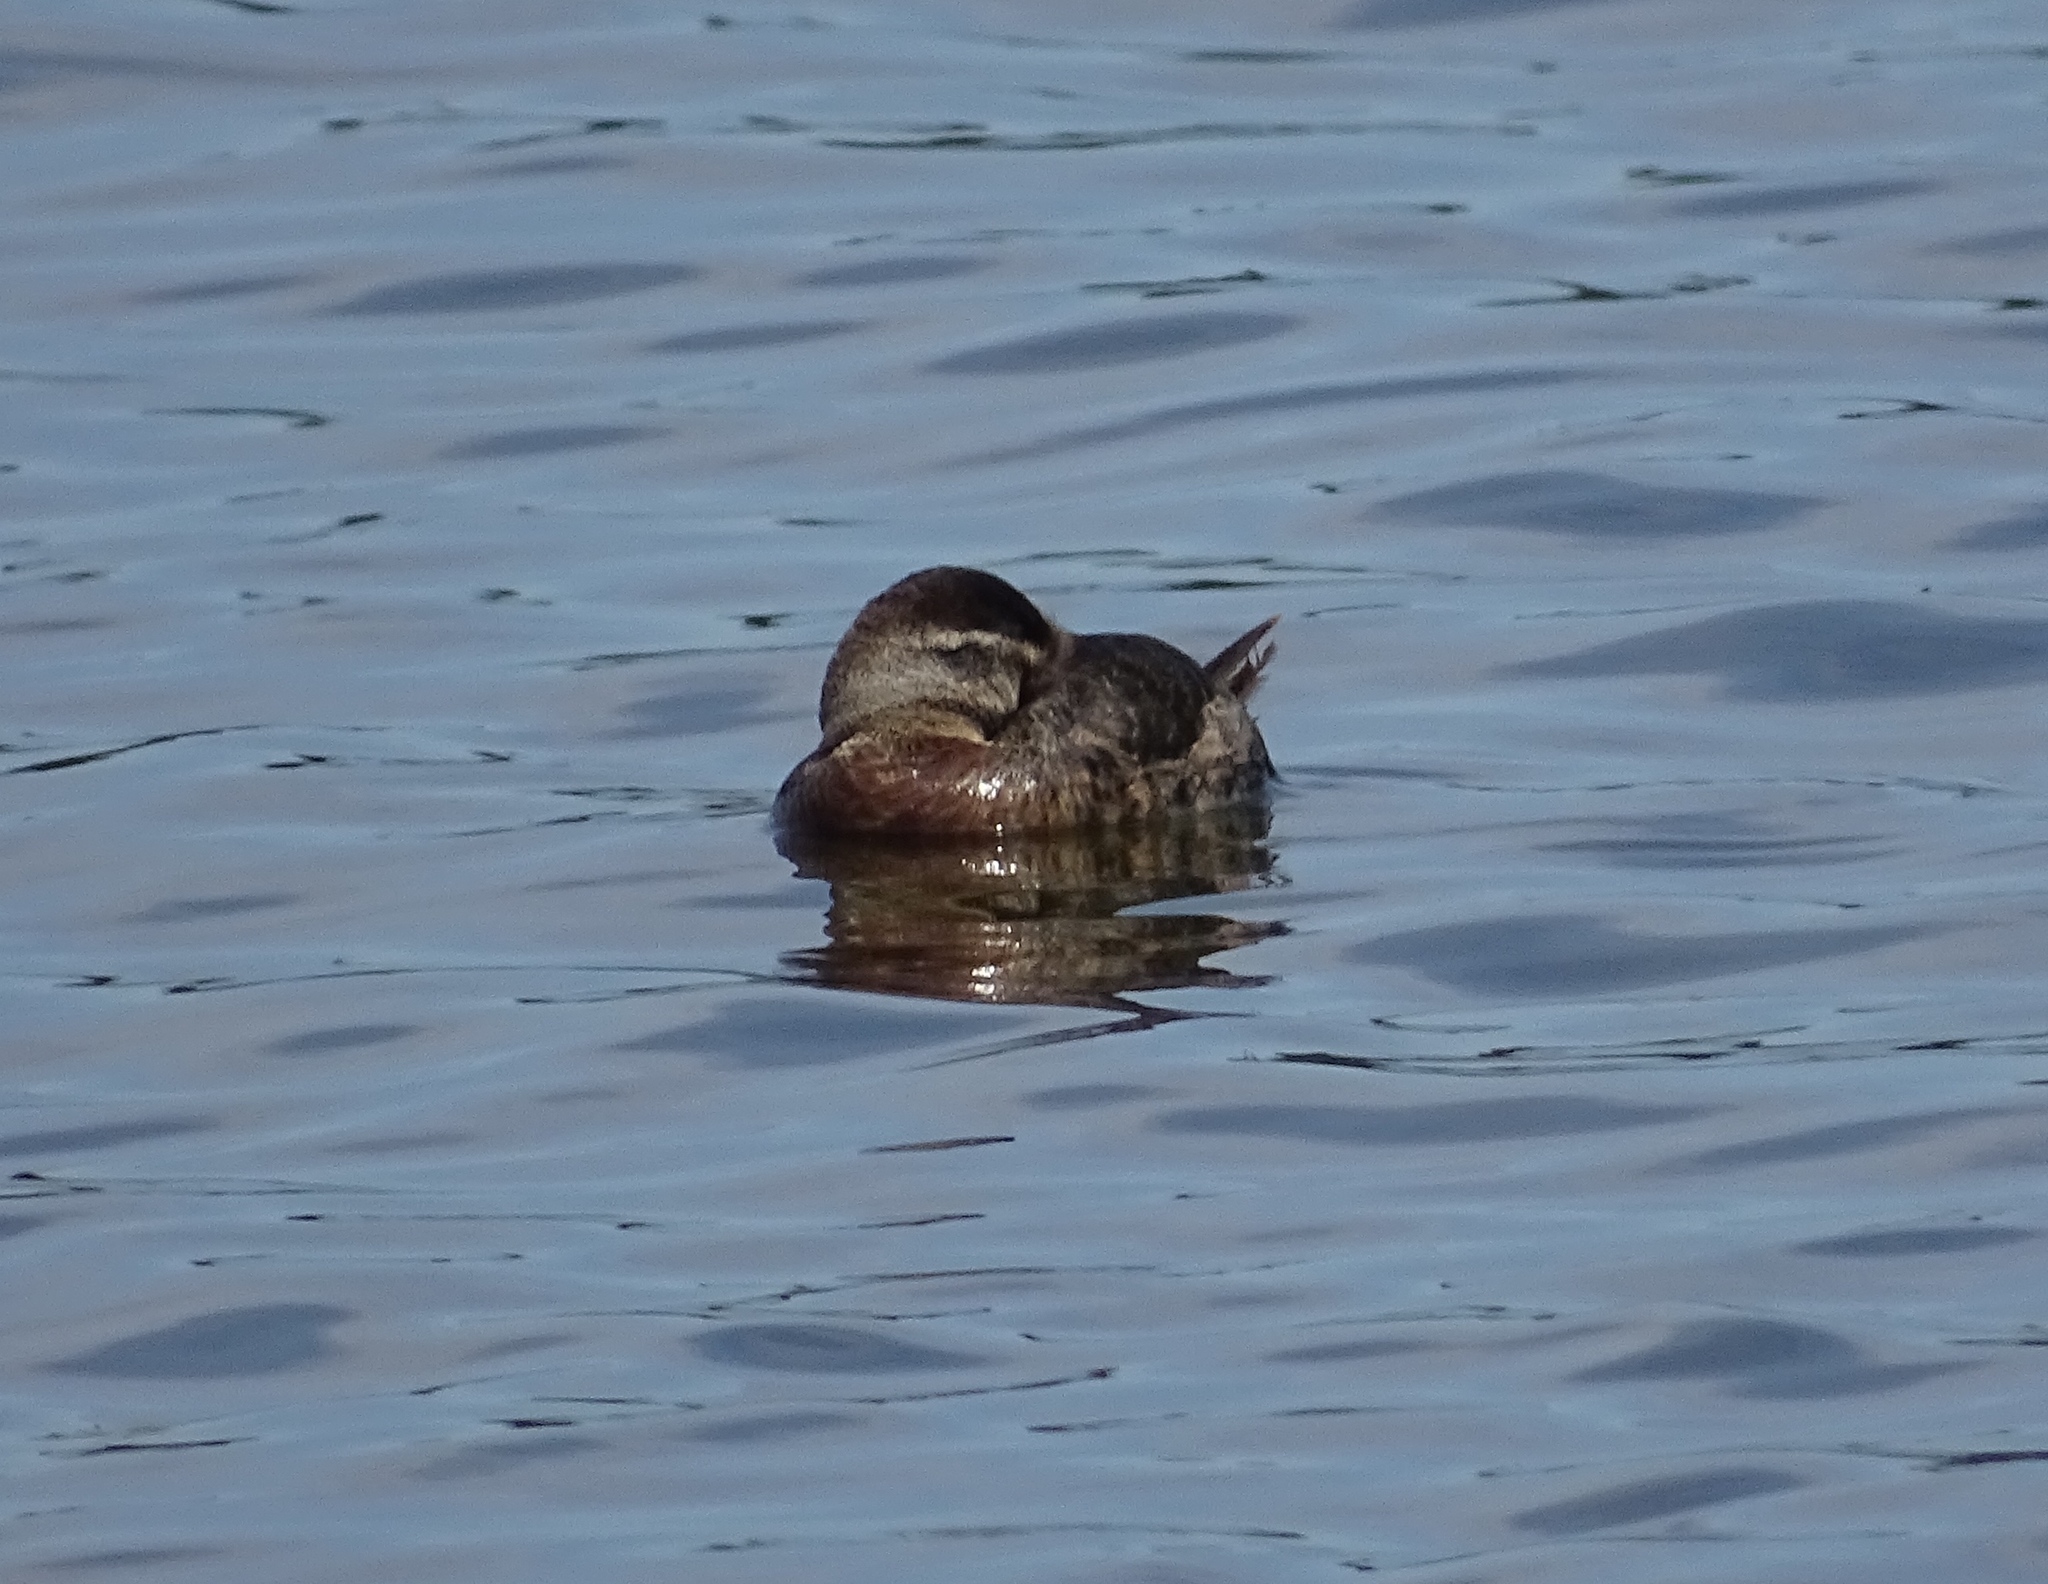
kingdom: Animalia
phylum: Chordata
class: Aves
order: Anseriformes
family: Anatidae
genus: Oxyura
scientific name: Oxyura jamaicensis
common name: Ruddy duck
